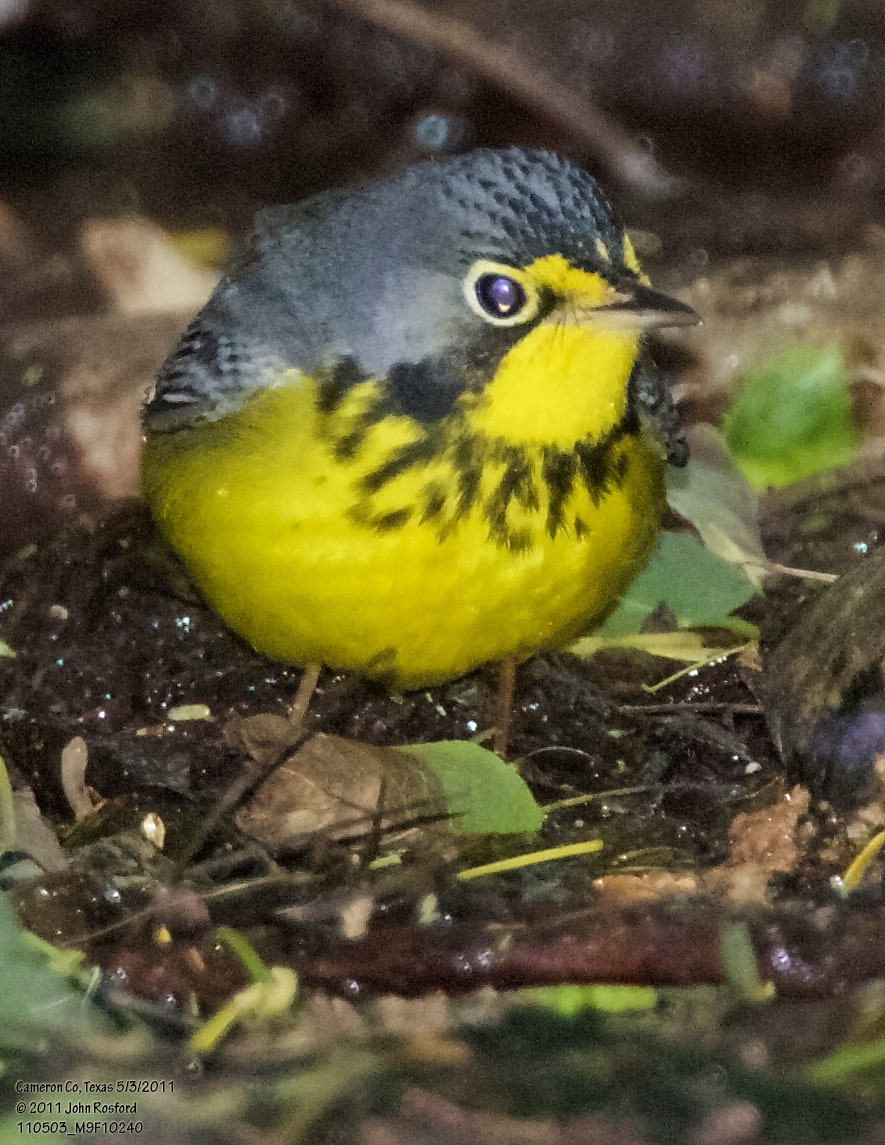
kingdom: Animalia
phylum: Chordata
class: Aves
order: Passeriformes
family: Parulidae
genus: Cardellina
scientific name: Cardellina canadensis
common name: Canada warbler
